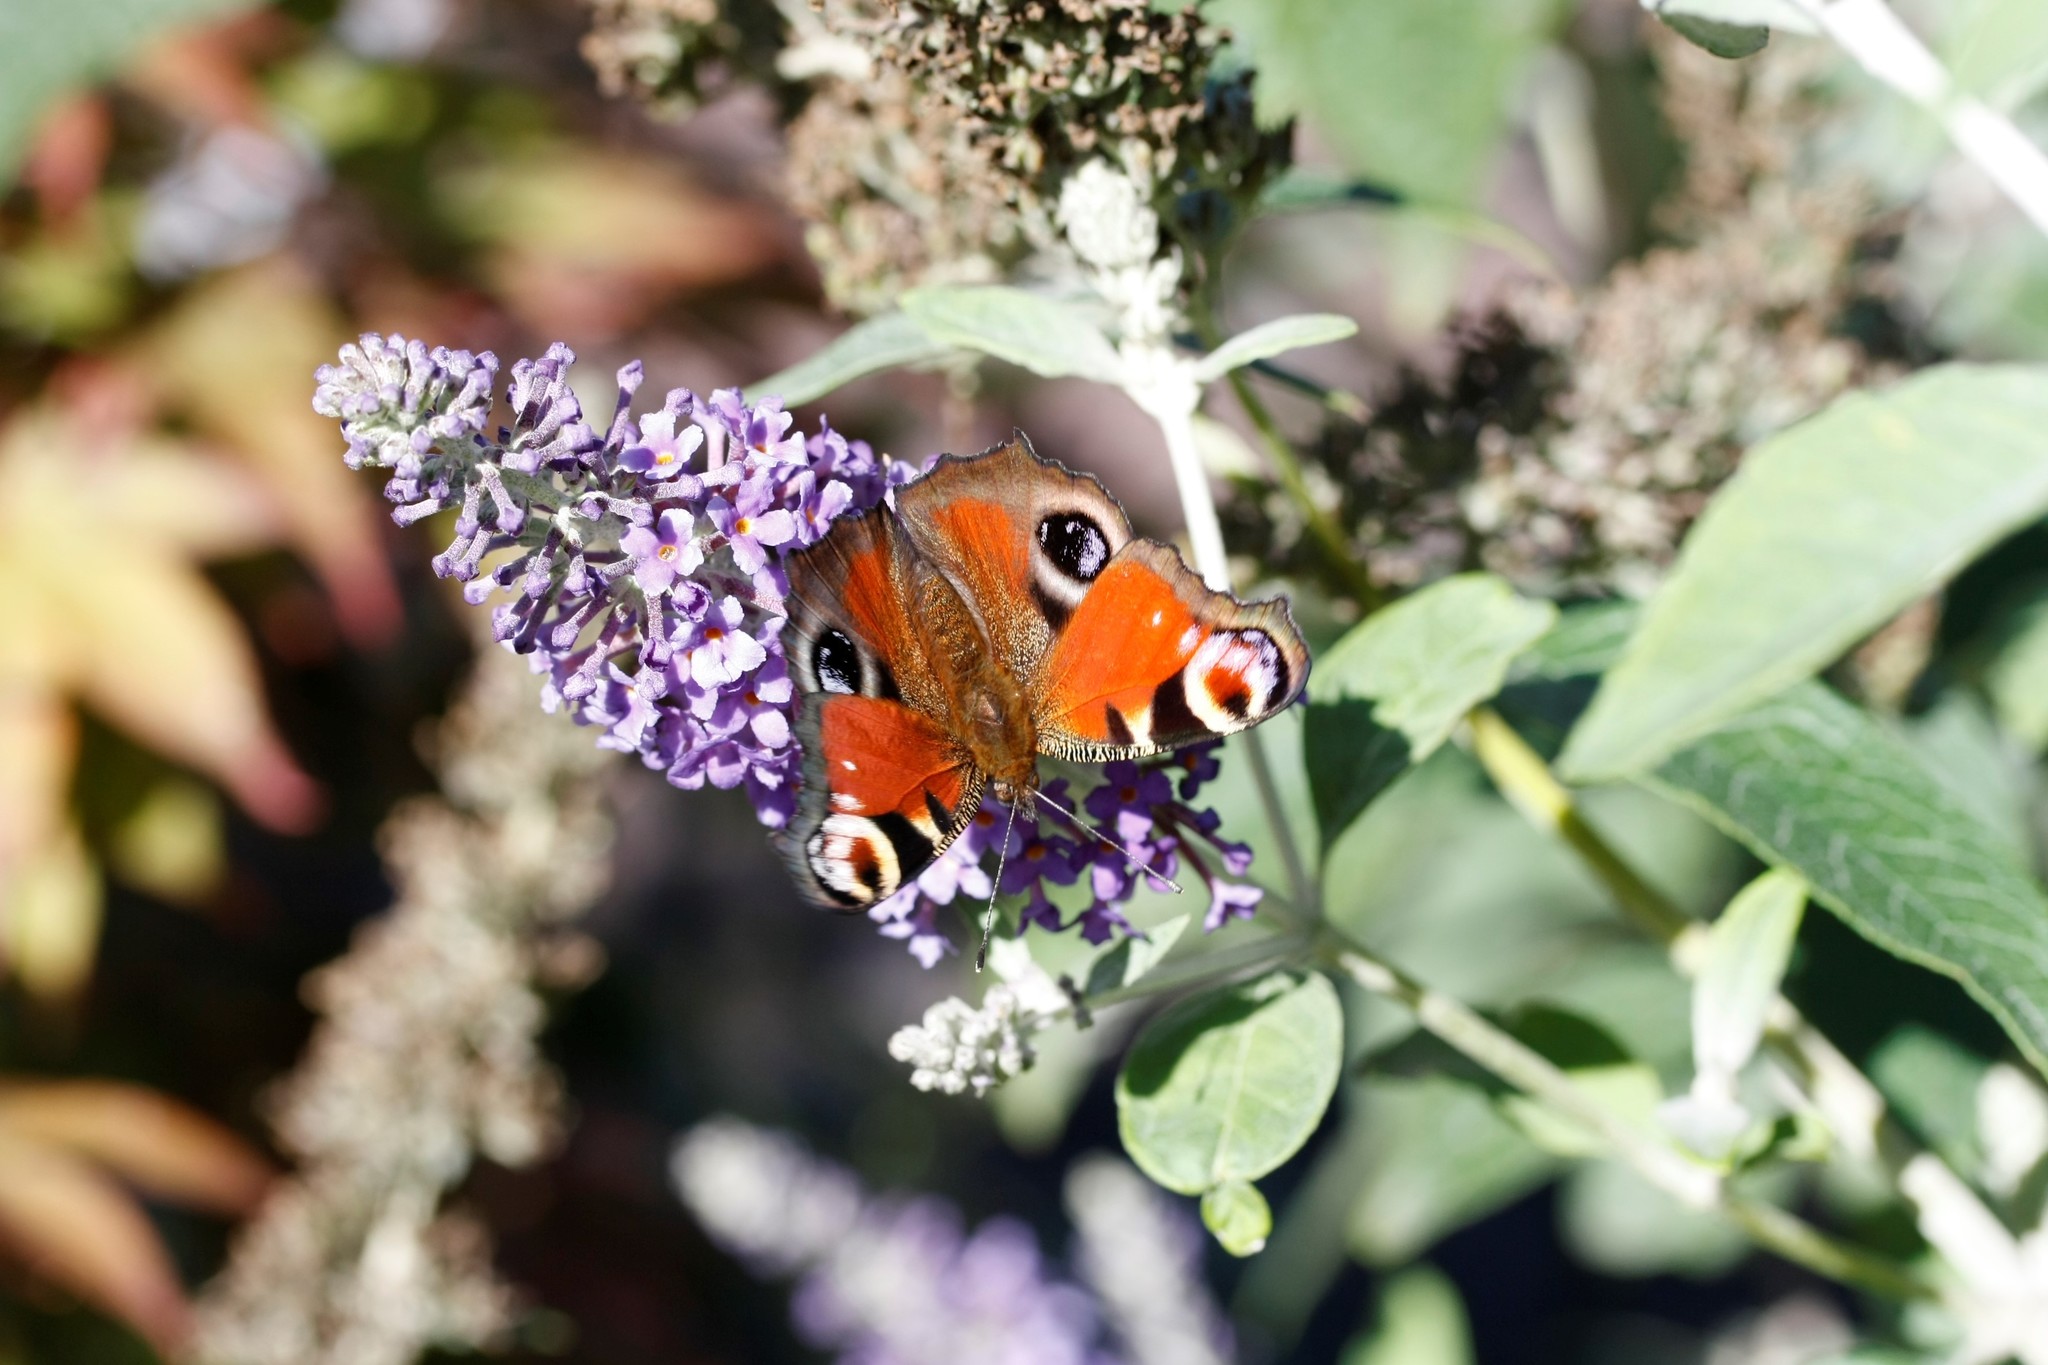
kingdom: Animalia
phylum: Arthropoda
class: Insecta
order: Lepidoptera
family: Nymphalidae
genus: Aglais
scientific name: Aglais io
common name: Peacock
